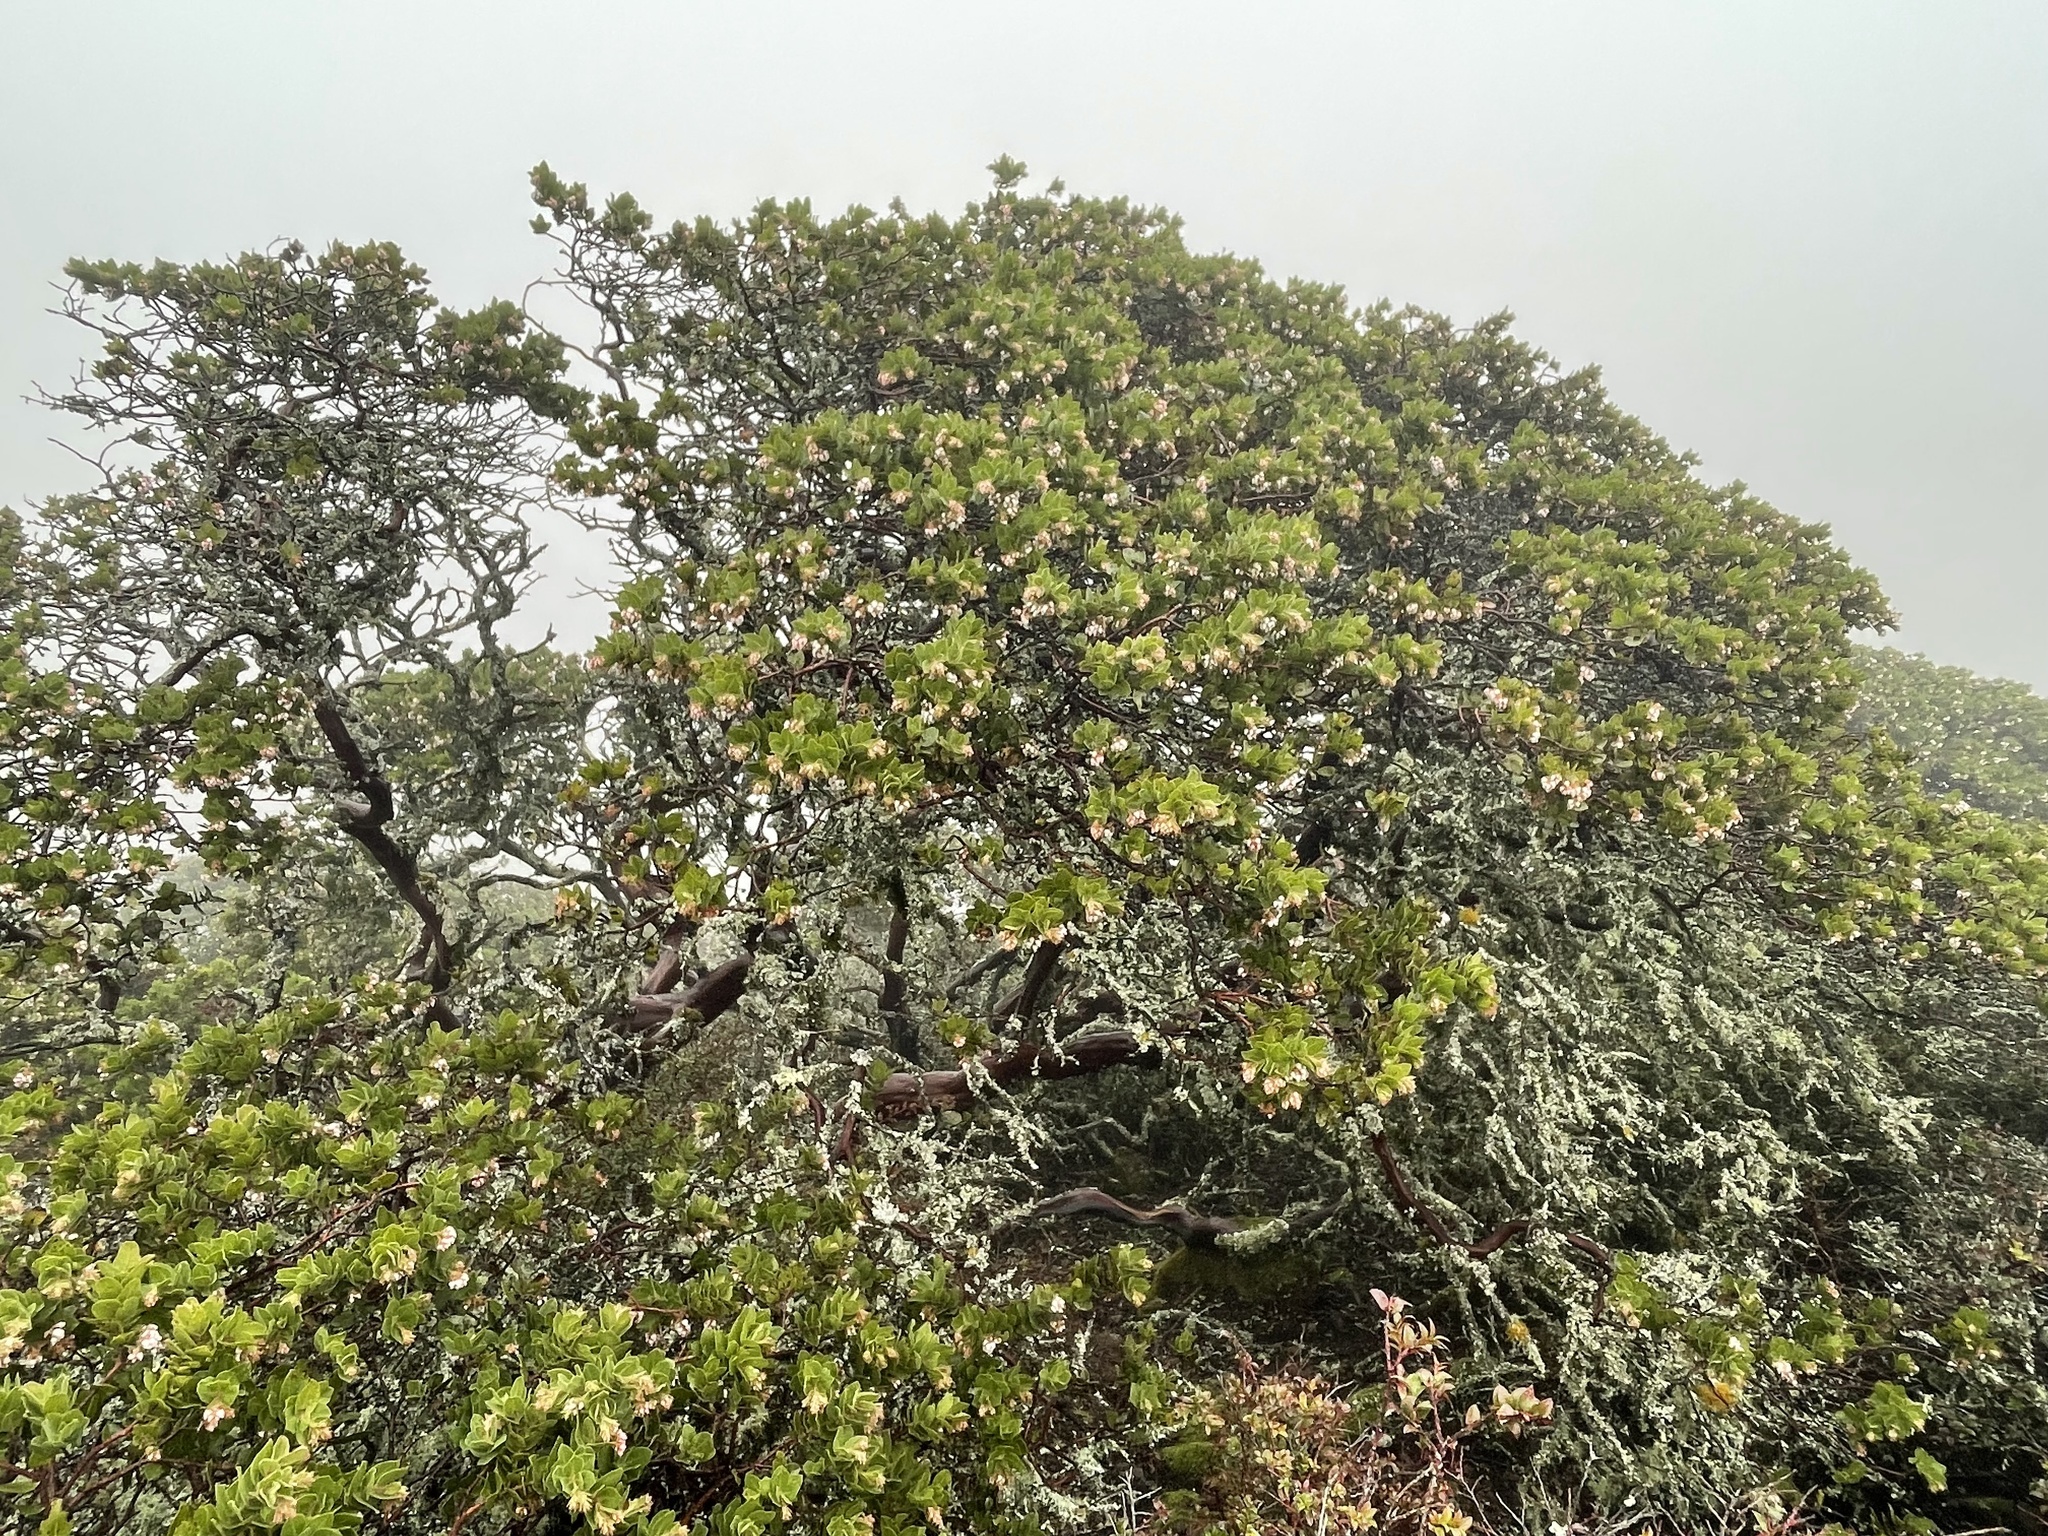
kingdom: Plantae
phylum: Tracheophyta
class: Magnoliopsida
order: Ericales
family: Ericaceae
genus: Arctostaphylos
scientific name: Arctostaphylos montaraensis
